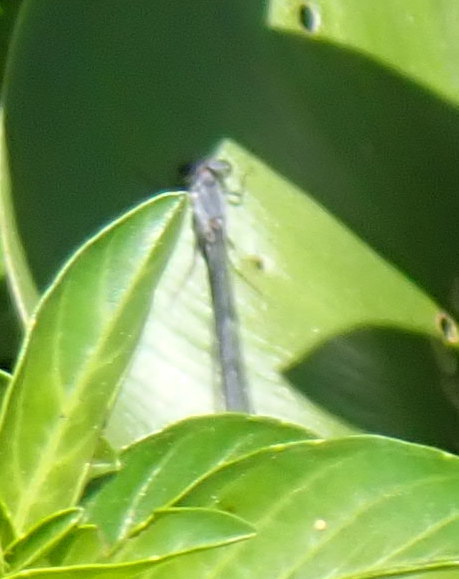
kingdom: Animalia
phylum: Arthropoda
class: Insecta
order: Odonata
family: Coenagrionidae
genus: Ischnura
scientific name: Ischnura posita
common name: Fragile forktail
